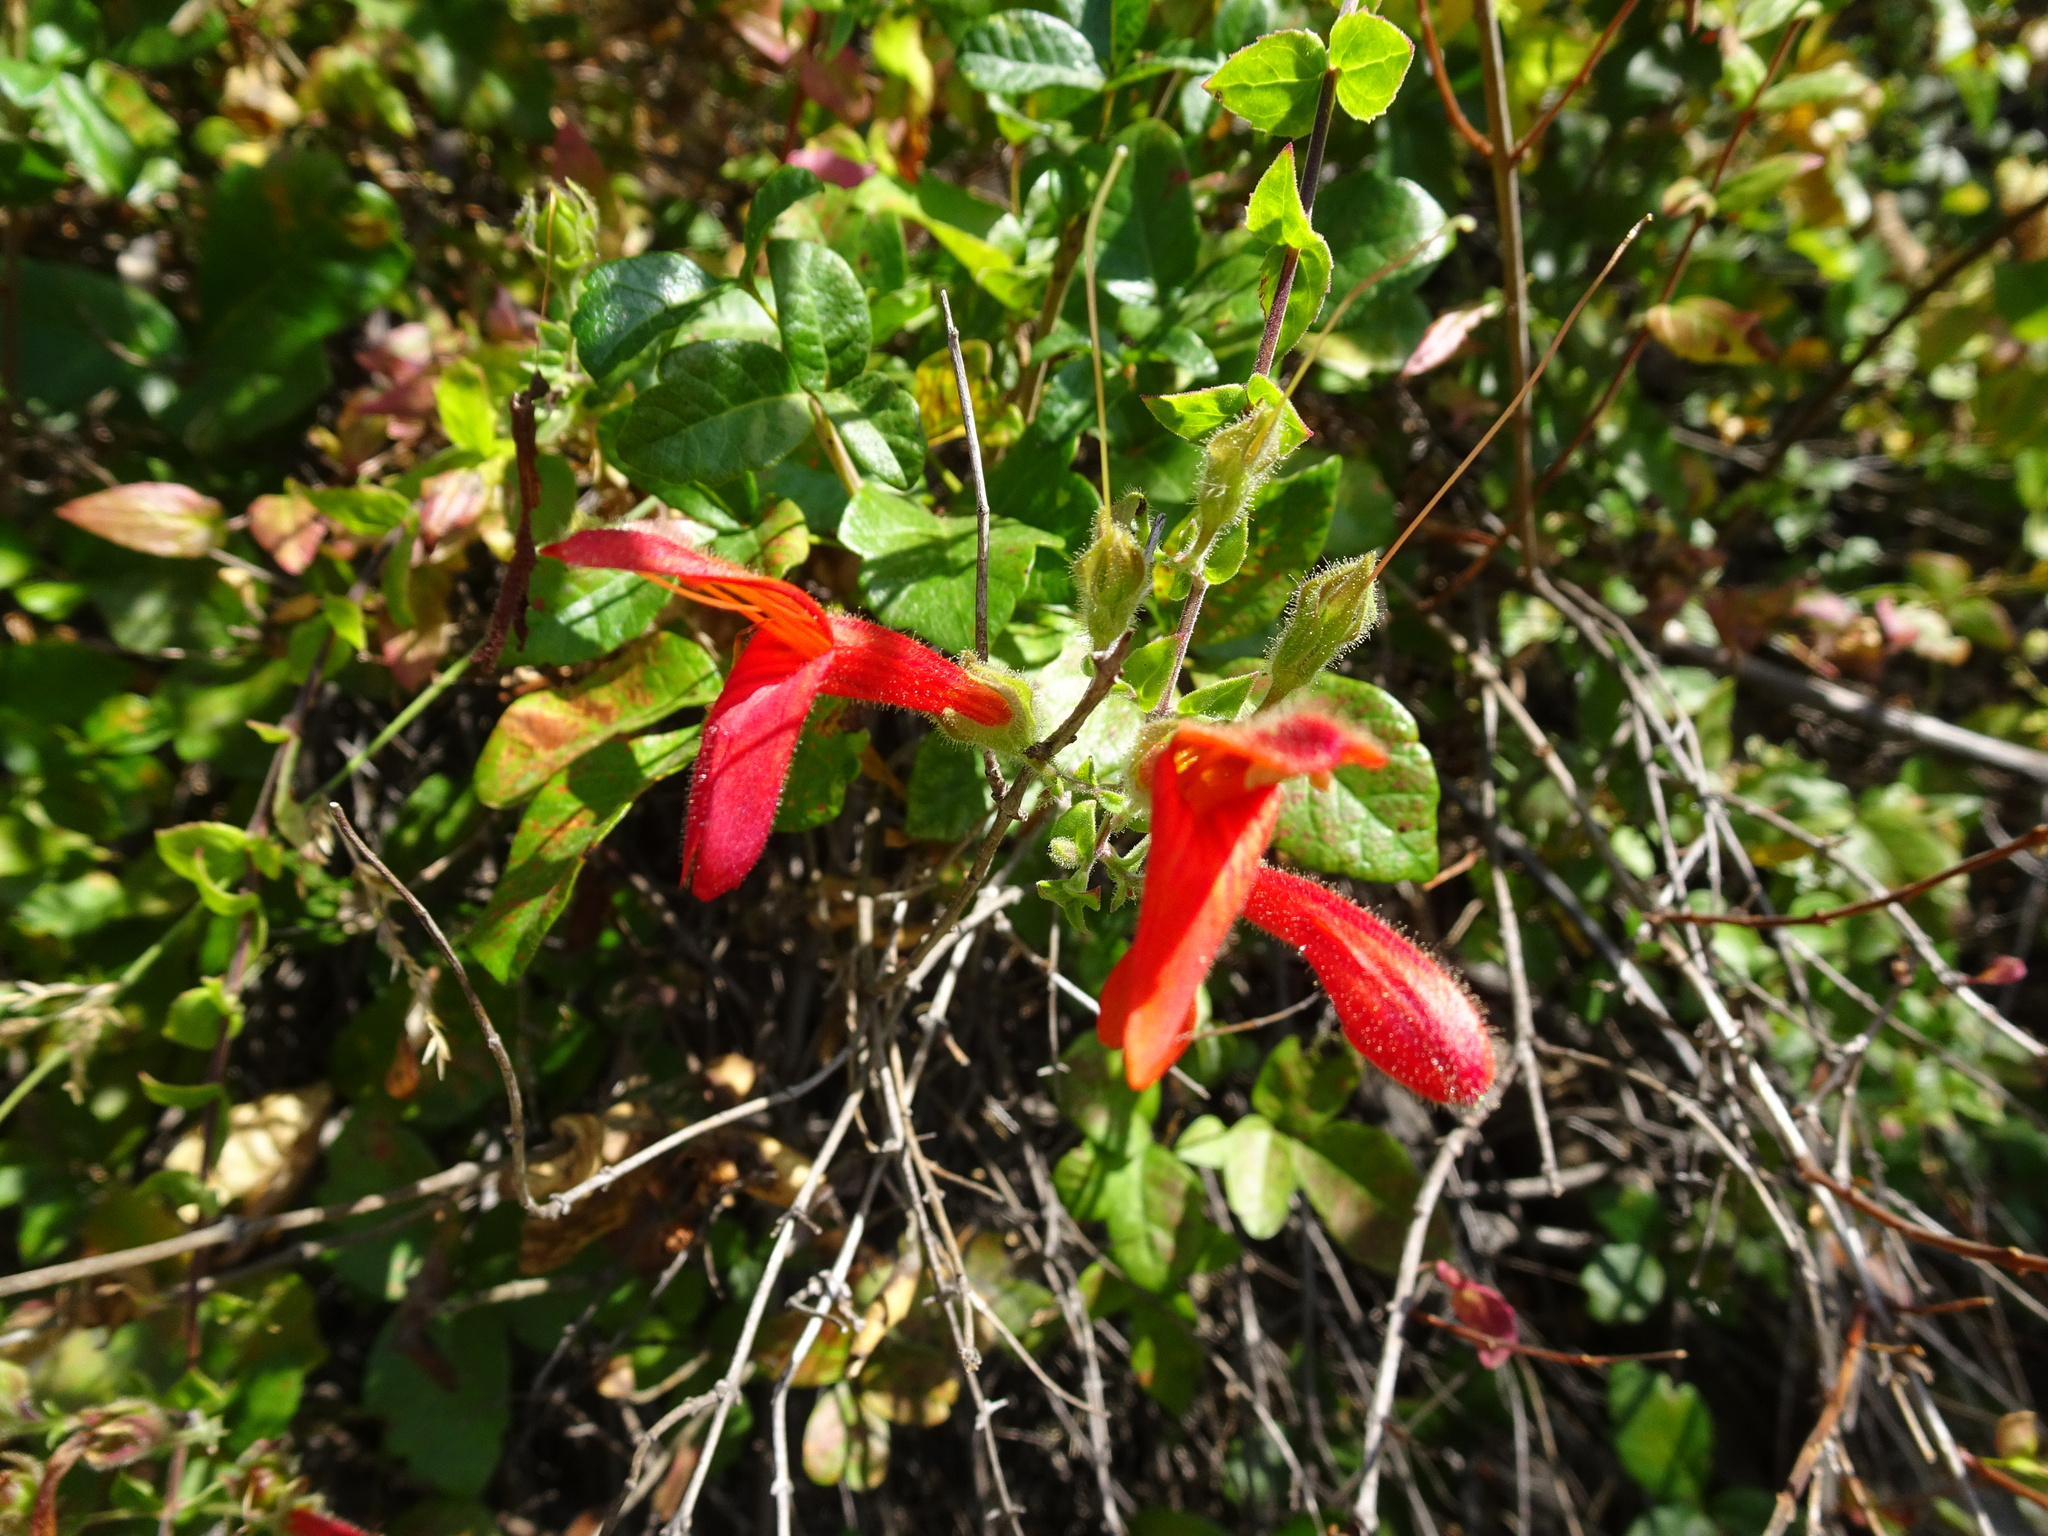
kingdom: Plantae
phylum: Tracheophyta
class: Magnoliopsida
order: Lamiales
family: Plantaginaceae
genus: Keckiella
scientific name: Keckiella cordifolia
